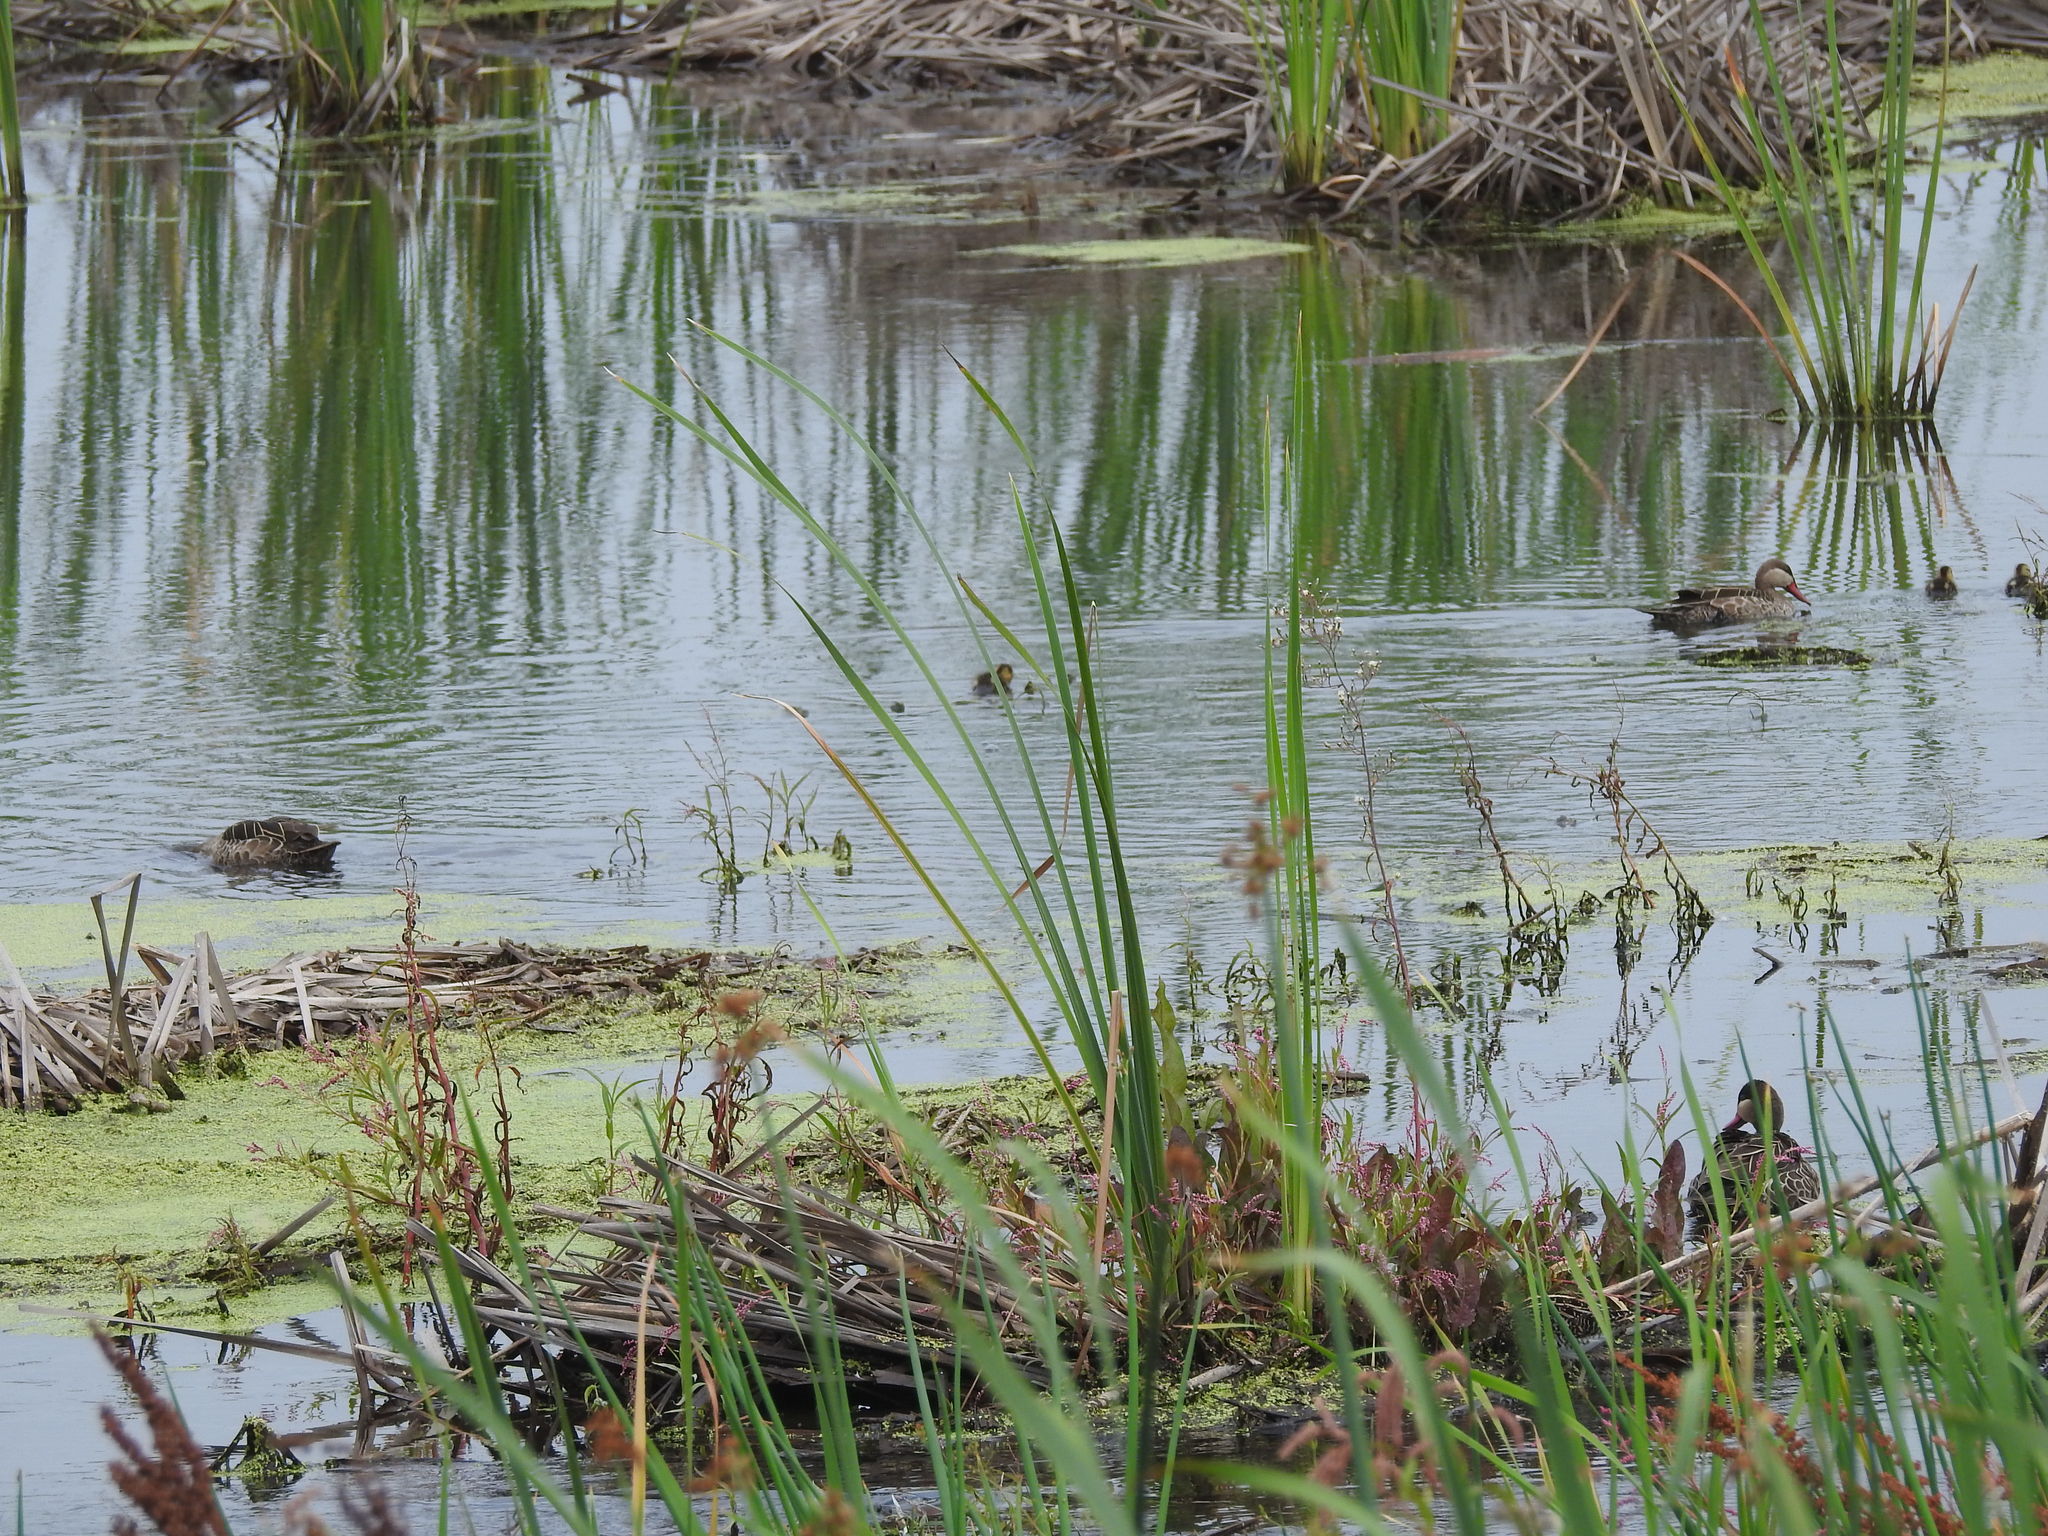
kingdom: Animalia
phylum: Chordata
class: Aves
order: Anseriformes
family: Anatidae
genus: Anas
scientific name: Anas erythrorhyncha
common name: Red-billed teal
